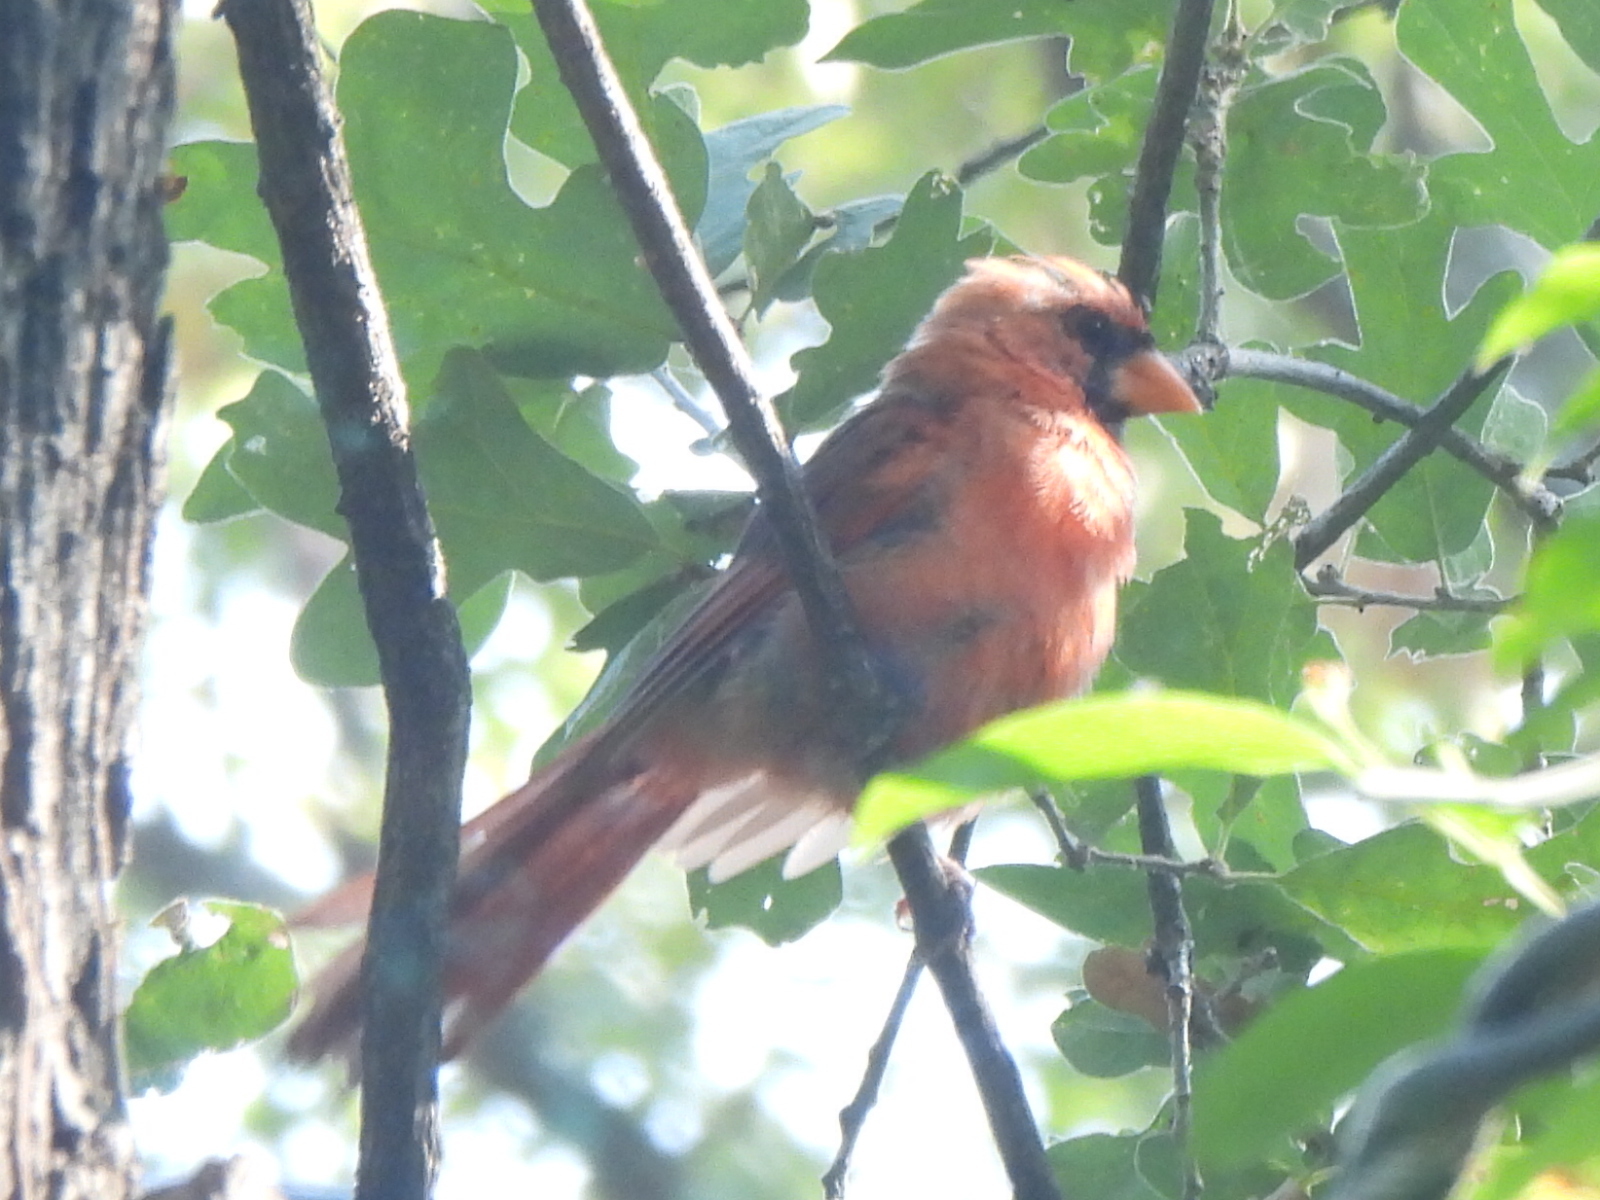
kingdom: Animalia
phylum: Chordata
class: Aves
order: Passeriformes
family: Cardinalidae
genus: Cardinalis
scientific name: Cardinalis cardinalis
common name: Northern cardinal
